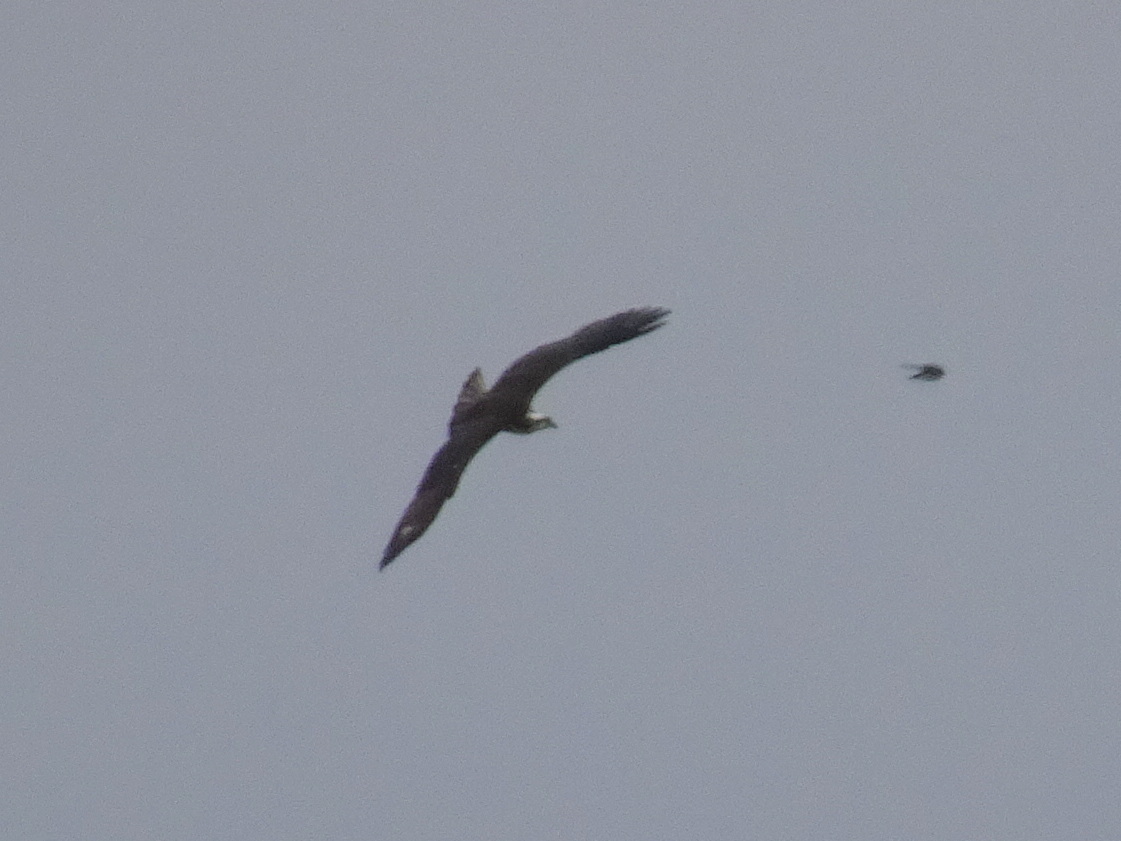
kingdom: Animalia
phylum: Chordata
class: Aves
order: Accipitriformes
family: Pandionidae
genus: Pandion
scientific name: Pandion haliaetus
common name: Osprey
